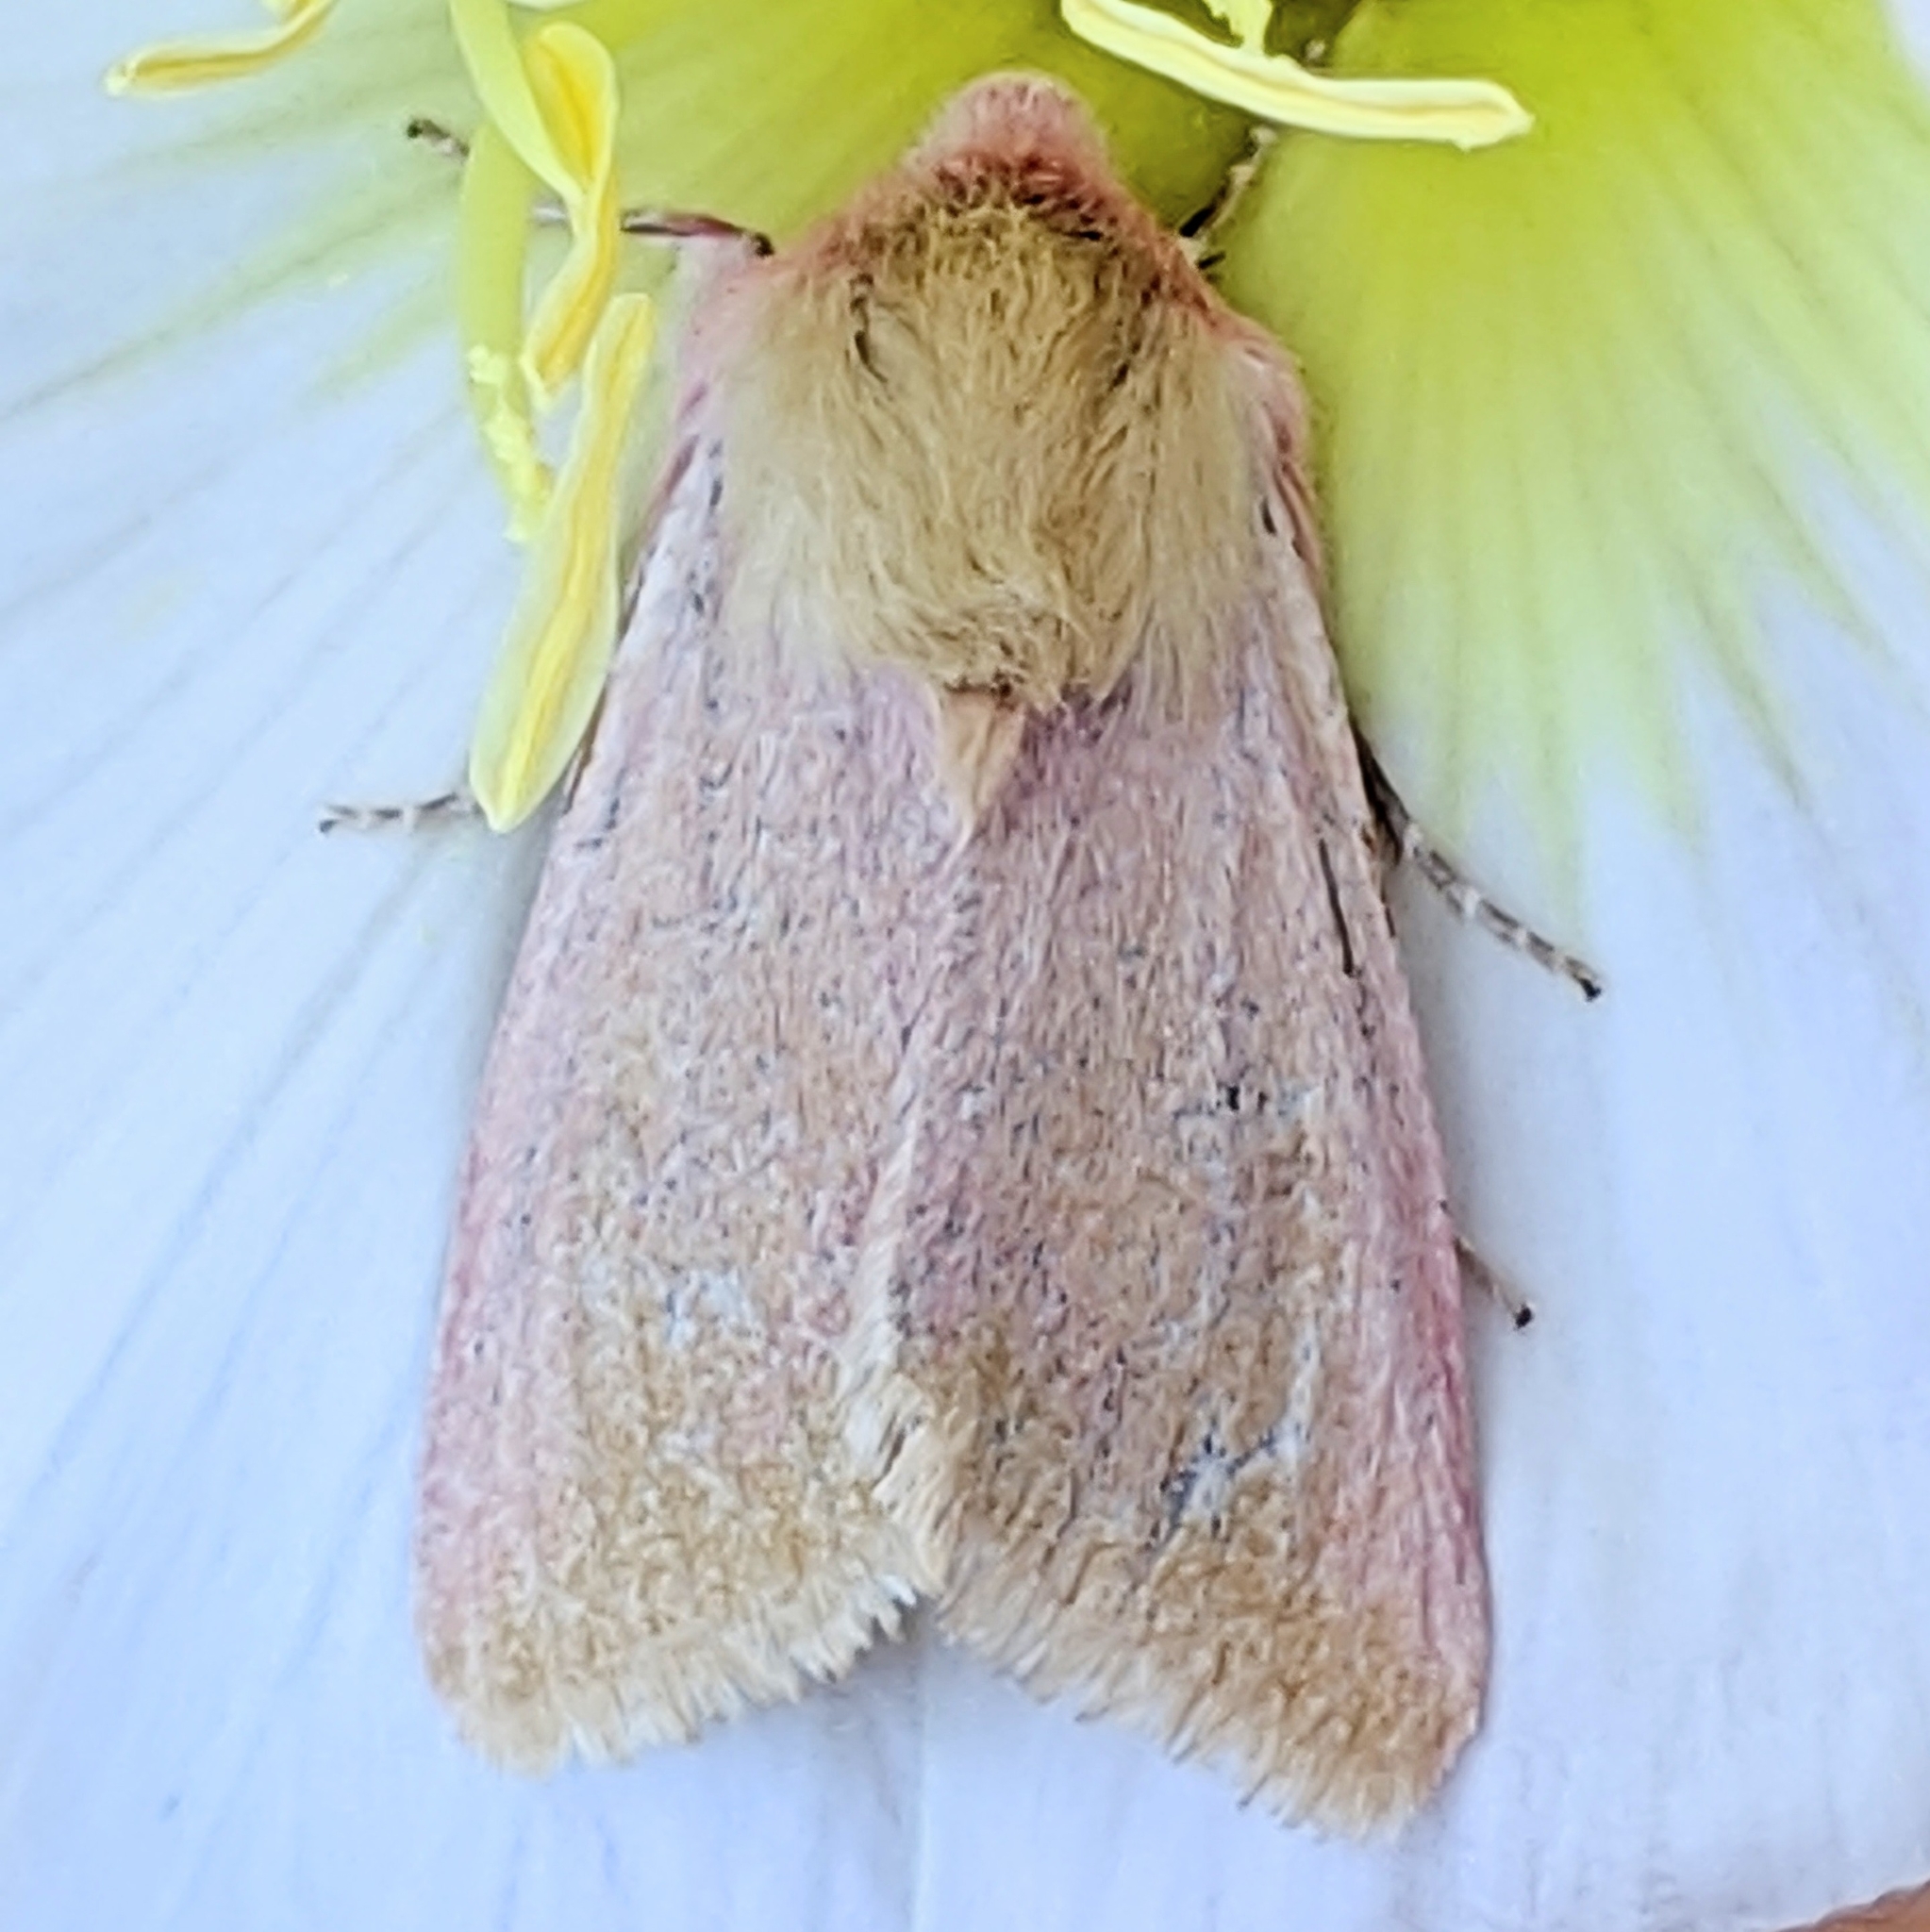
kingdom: Animalia
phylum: Arthropoda
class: Insecta
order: Lepidoptera
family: Noctuidae
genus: Schinia
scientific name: Schinia felicitata
